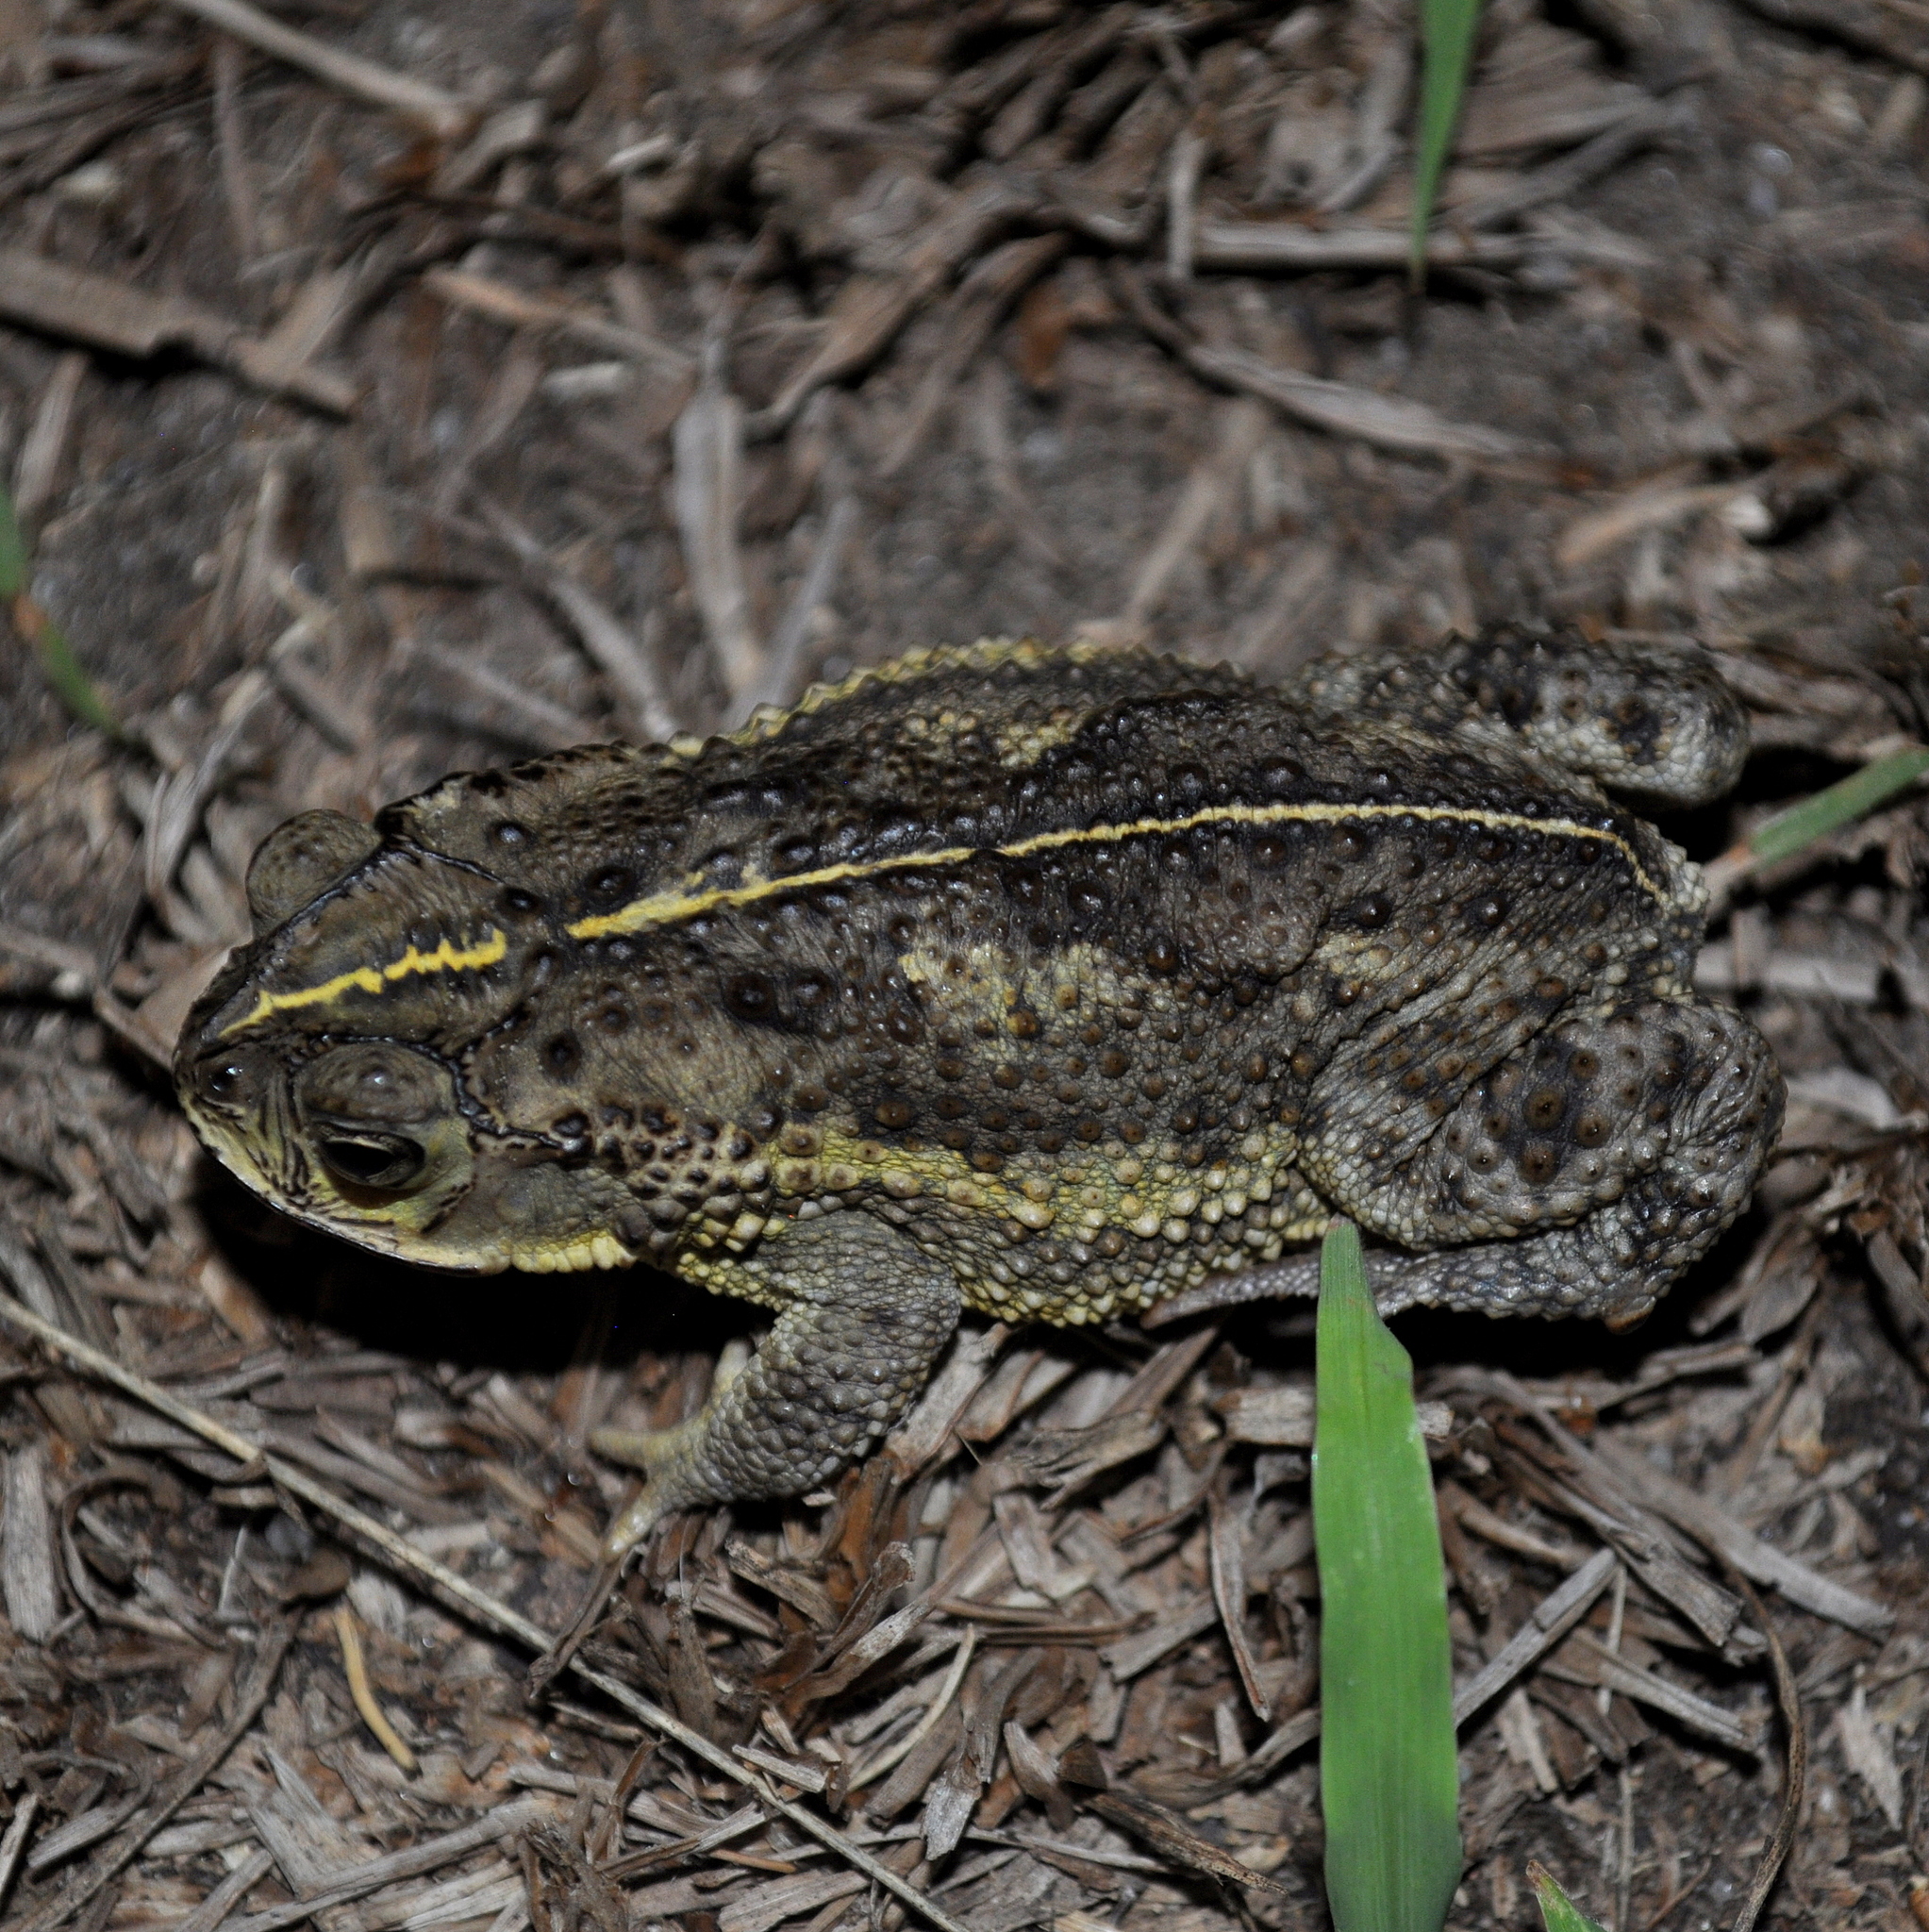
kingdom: Animalia
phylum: Chordata
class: Amphibia
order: Anura
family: Bufonidae
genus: Rhinella
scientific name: Rhinella dorbignyi
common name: D´orbigny’s toad
